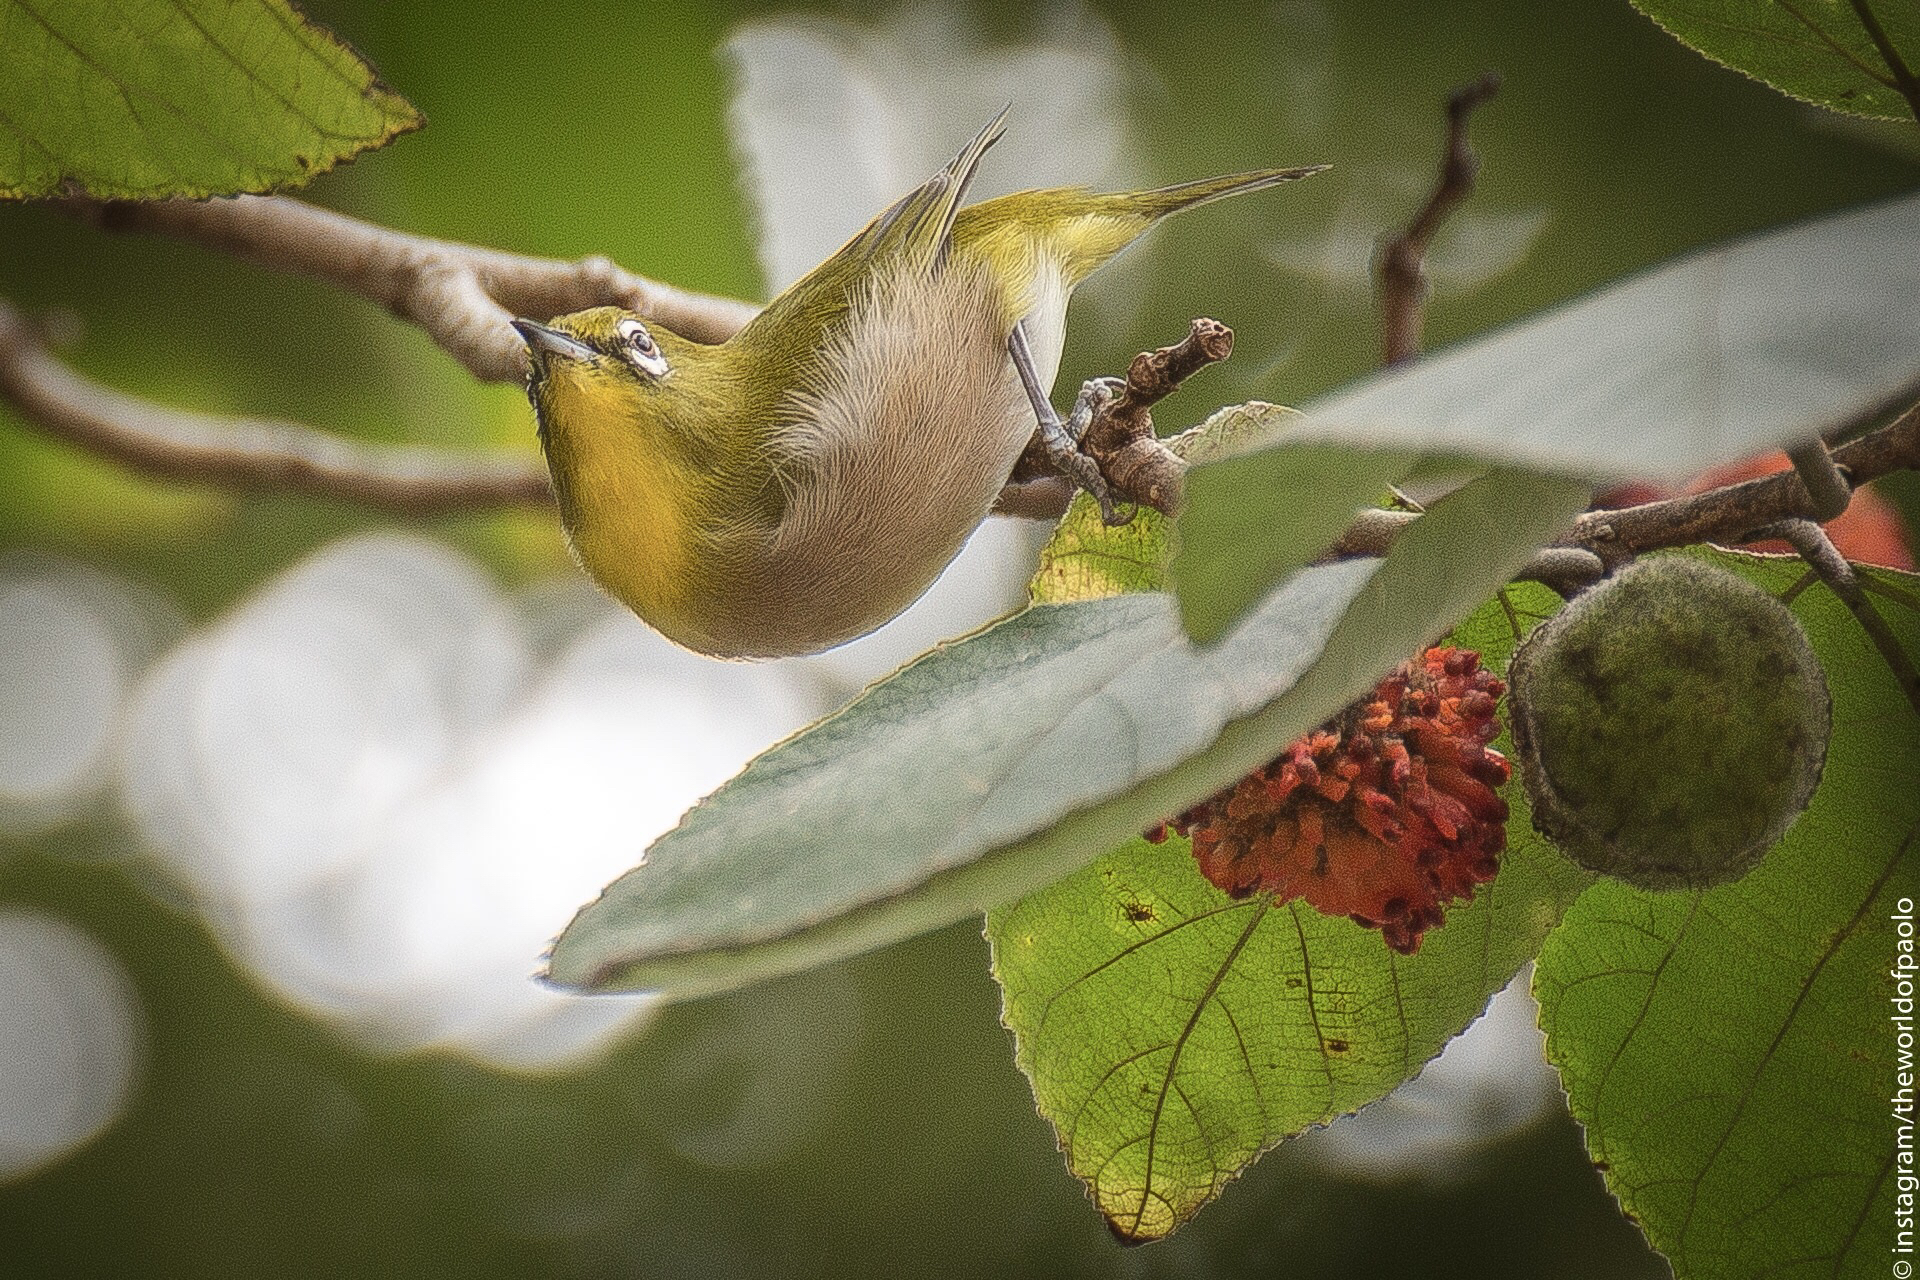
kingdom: Animalia
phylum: Chordata
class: Aves
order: Passeriformes
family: Zosteropidae
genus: Zosterops
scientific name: Zosterops japonicus
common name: Japanese white-eye
